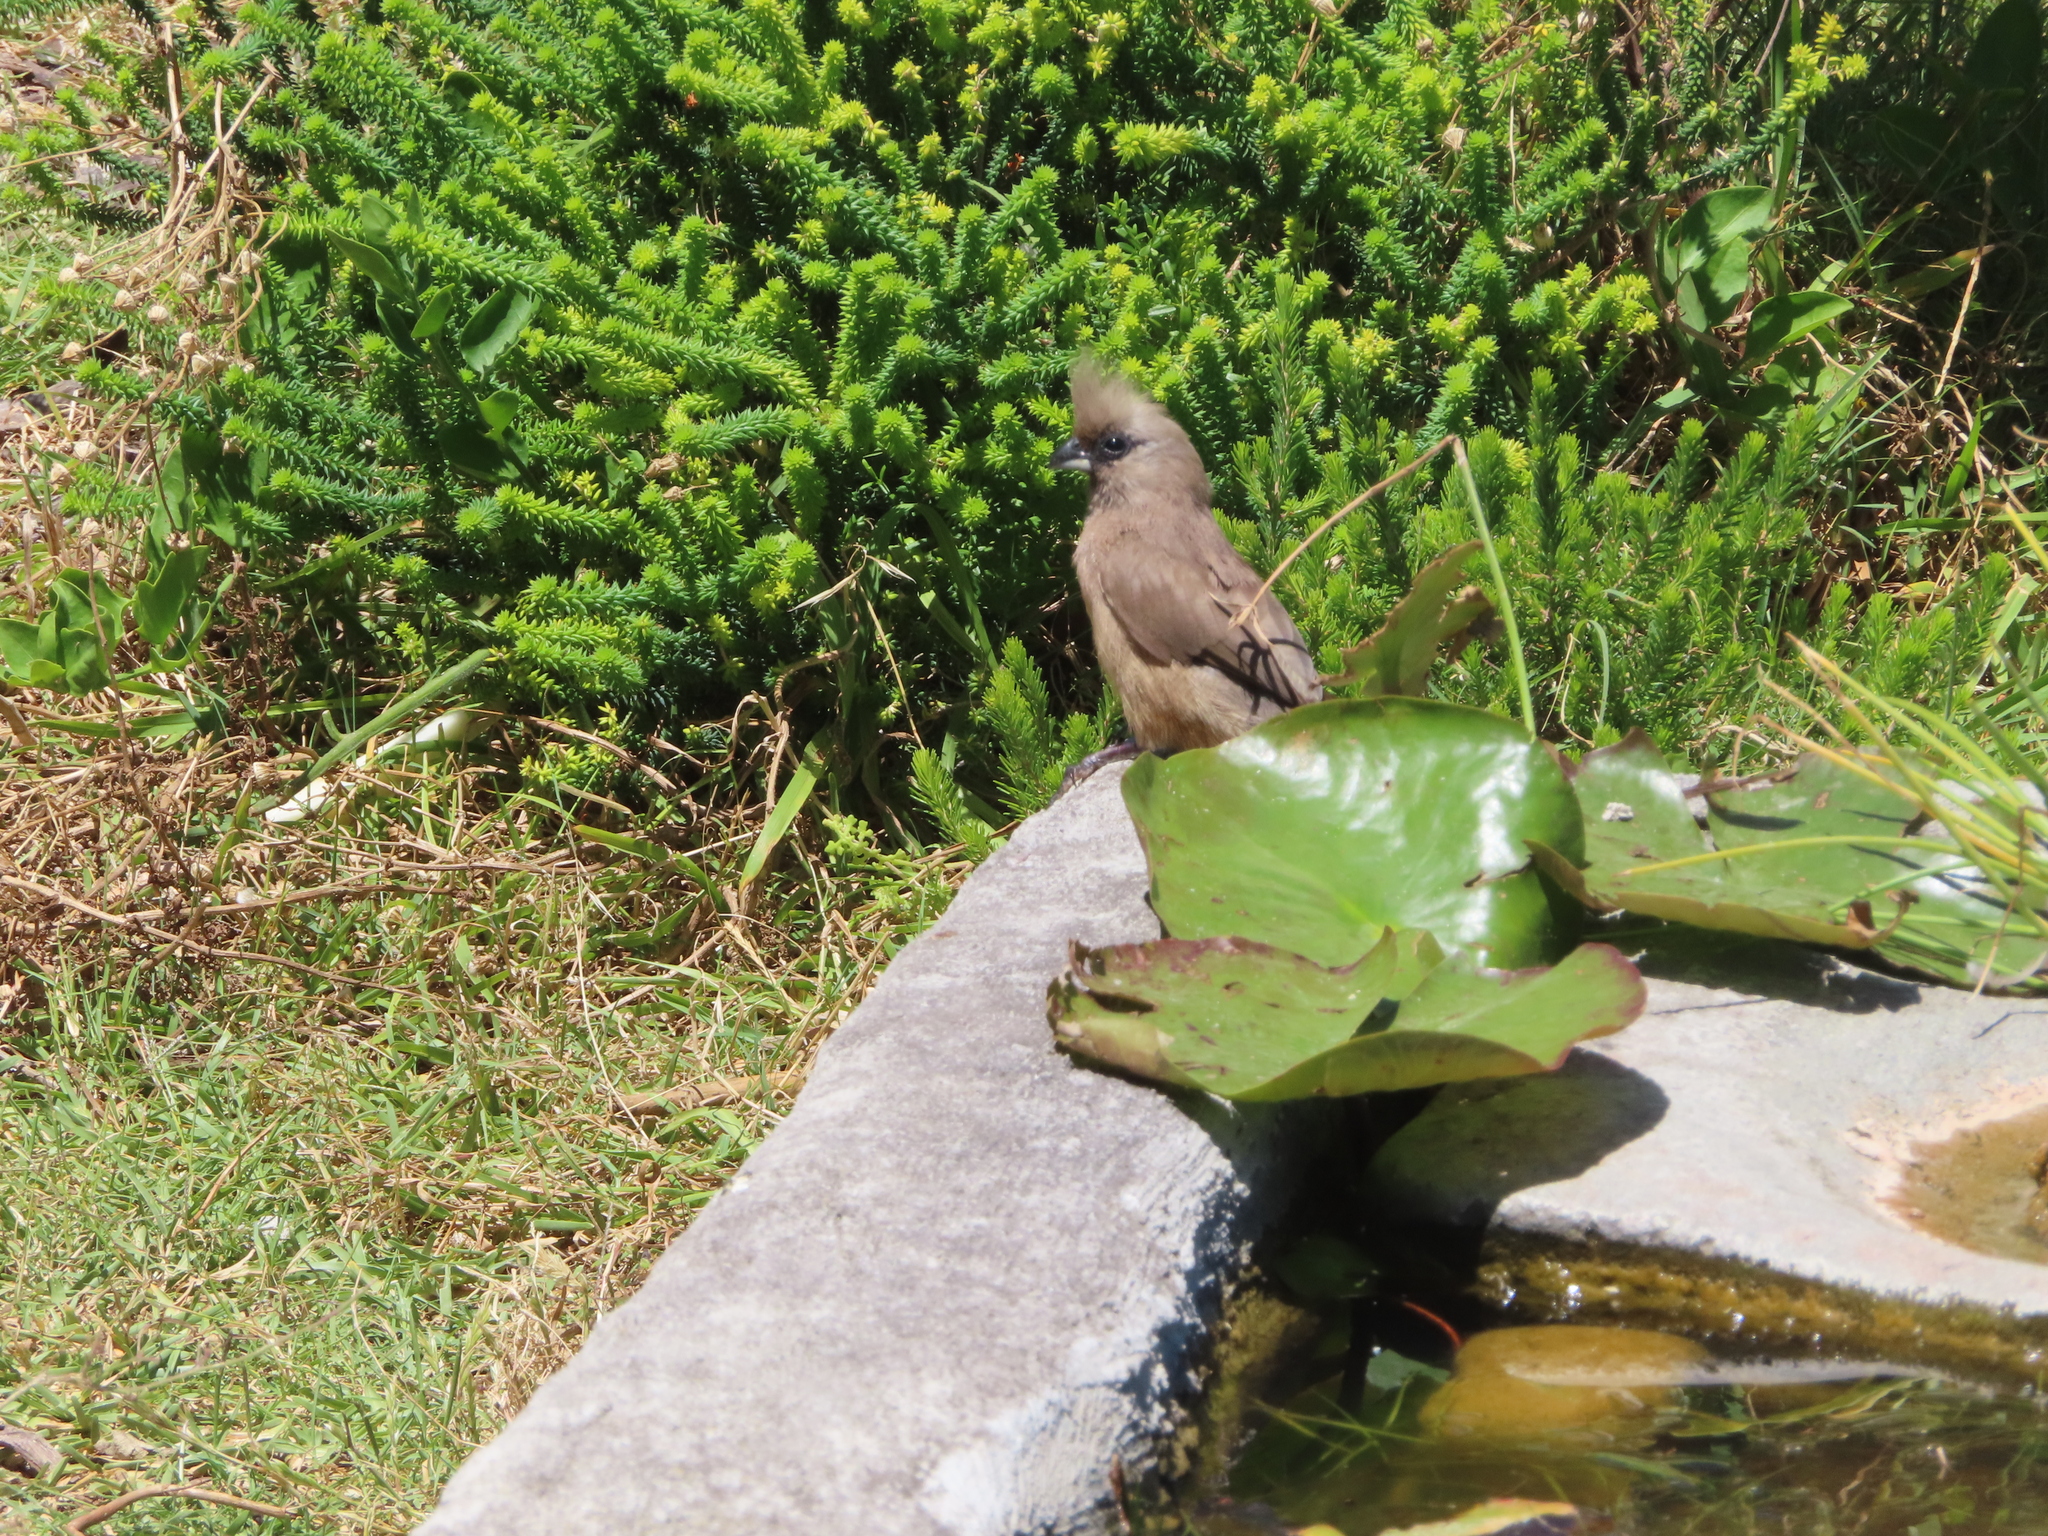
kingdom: Animalia
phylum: Chordata
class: Aves
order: Coliiformes
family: Coliidae
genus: Colius
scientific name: Colius striatus
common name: Speckled mousebird
